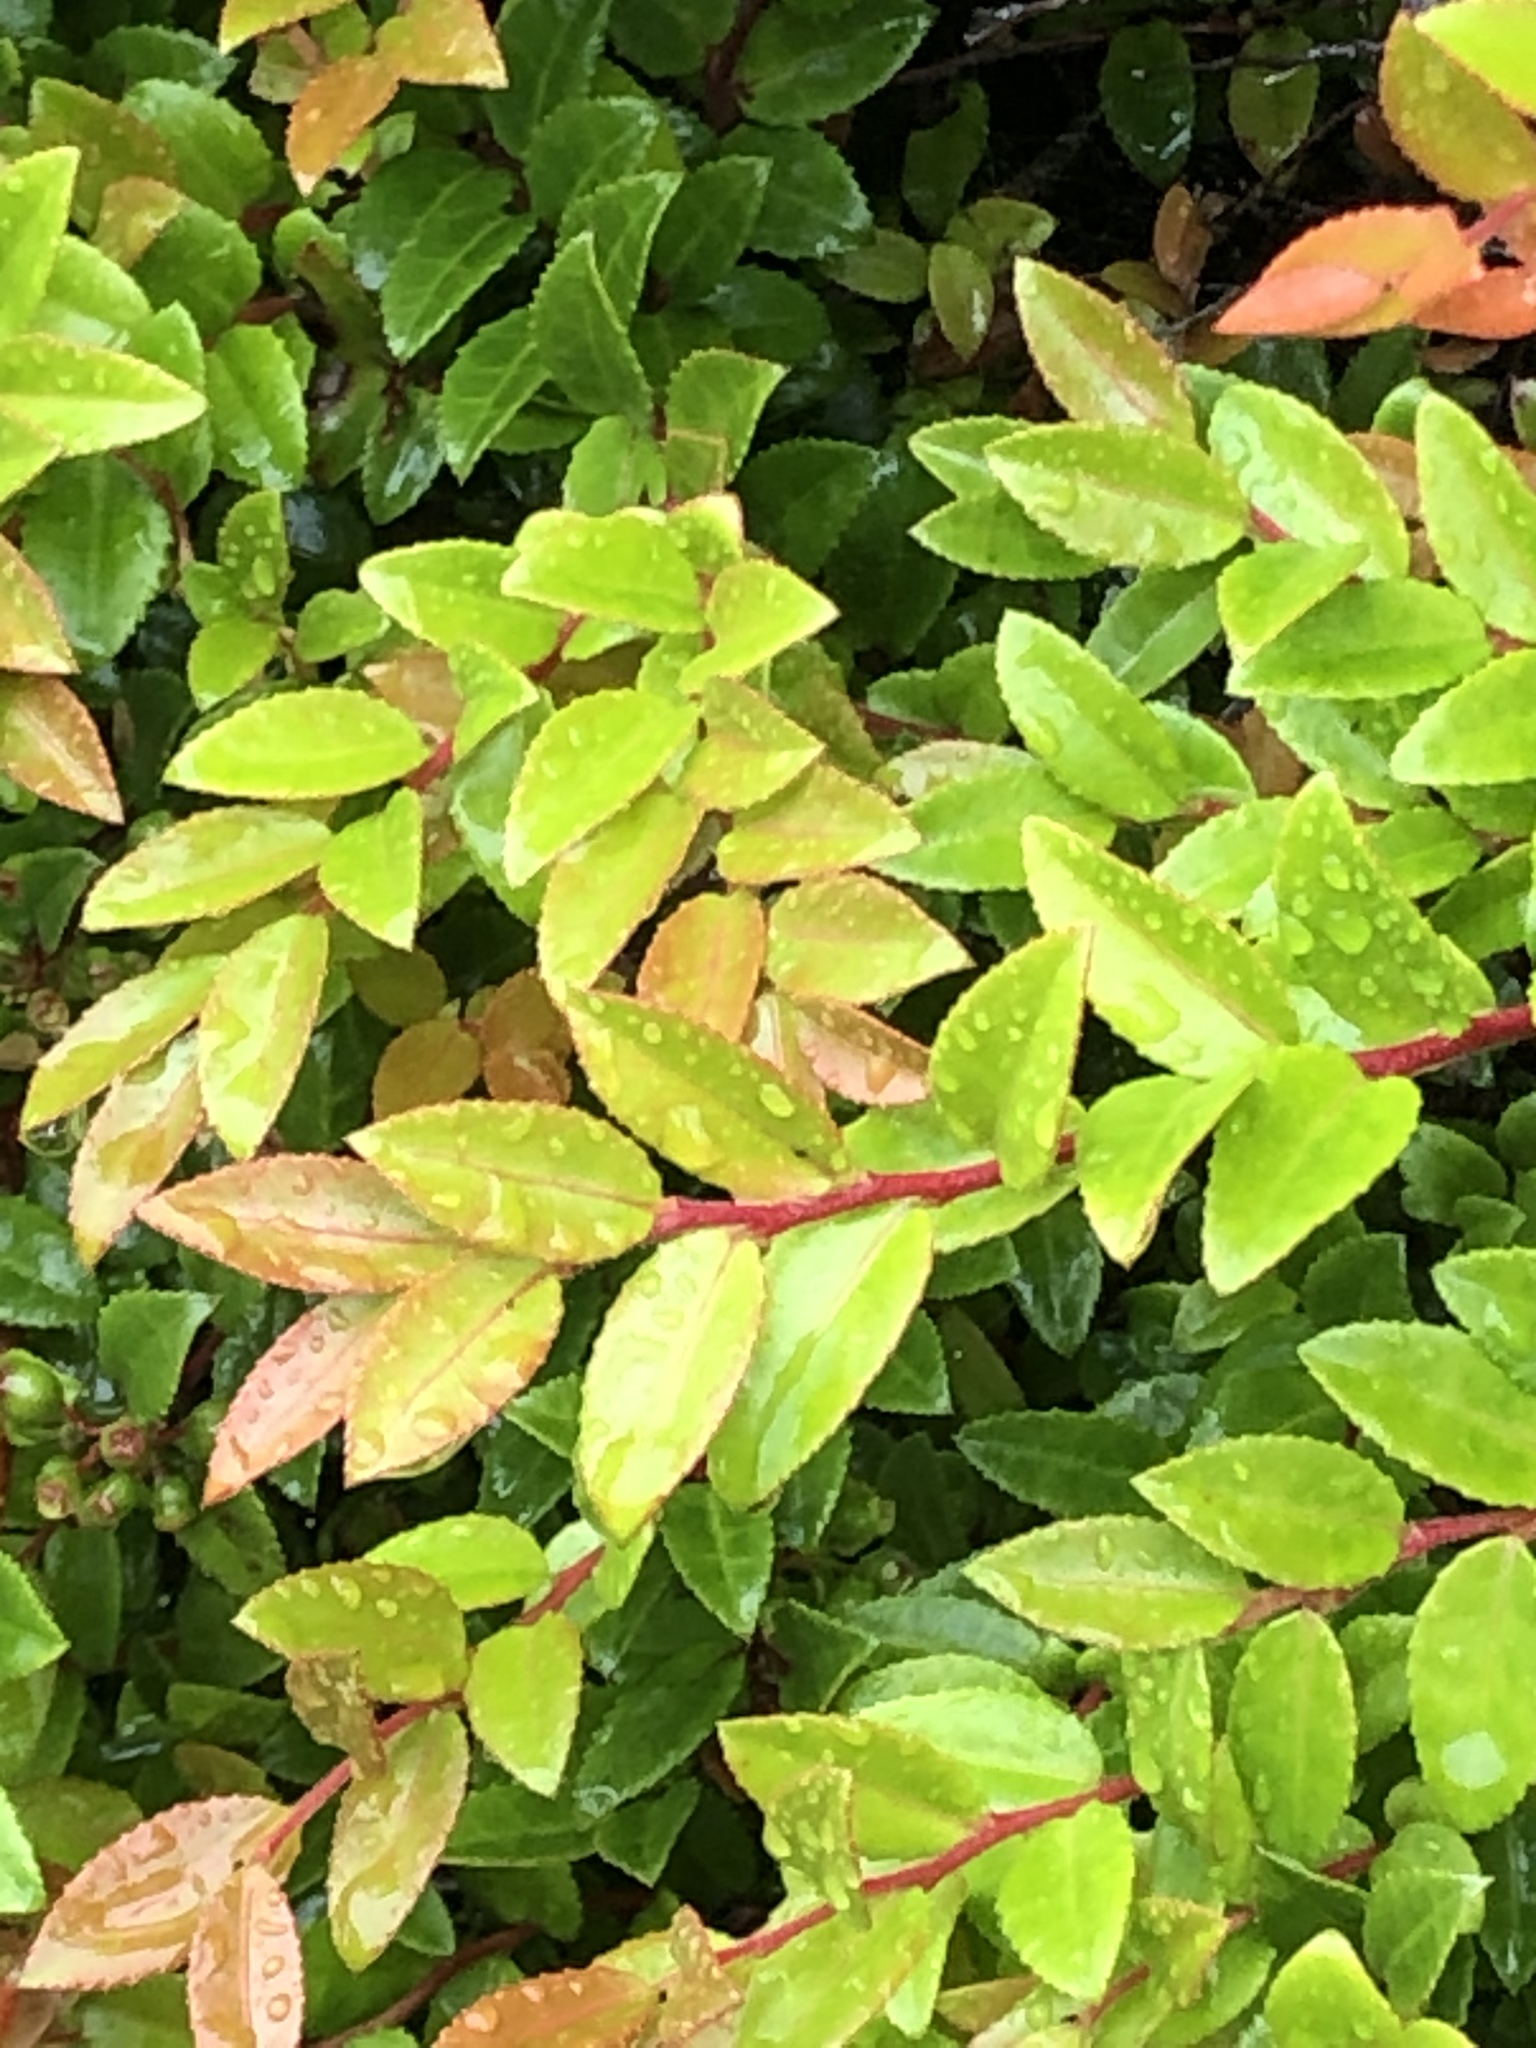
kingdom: Plantae
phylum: Tracheophyta
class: Magnoliopsida
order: Ericales
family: Ericaceae
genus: Vaccinium
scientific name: Vaccinium ovatum
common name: California-huckleberry
